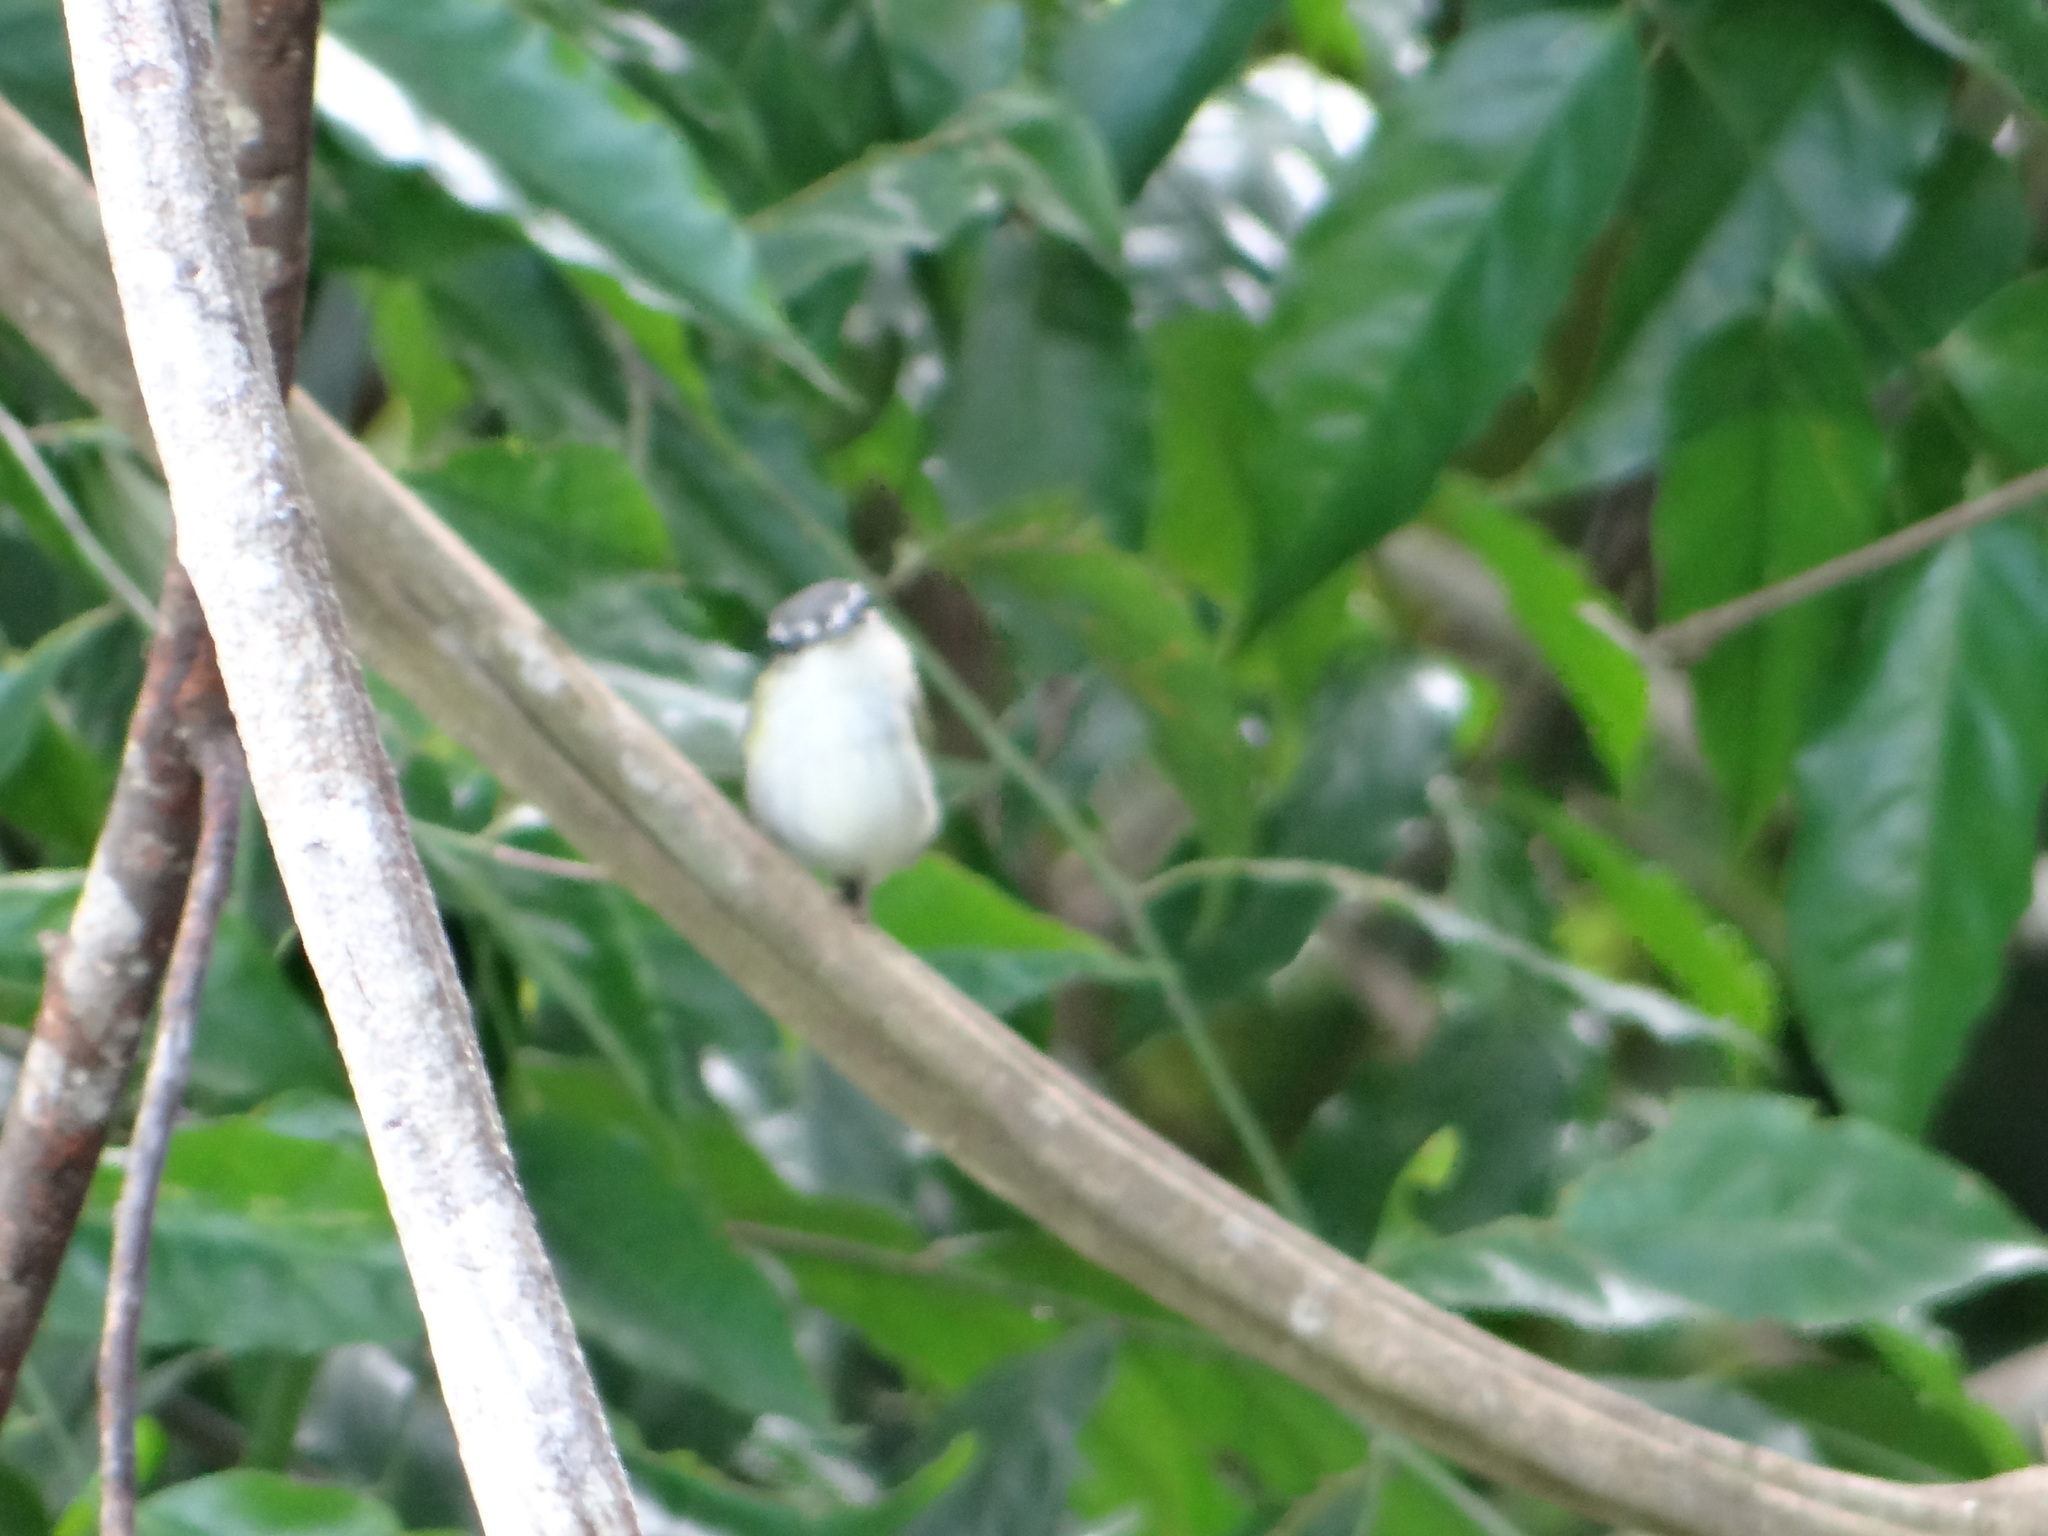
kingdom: Animalia
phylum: Chordata
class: Aves
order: Passeriformes
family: Tyrannidae
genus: Myiornis
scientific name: Myiornis ecaudatus
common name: Short-tailed pygmy tyrant
